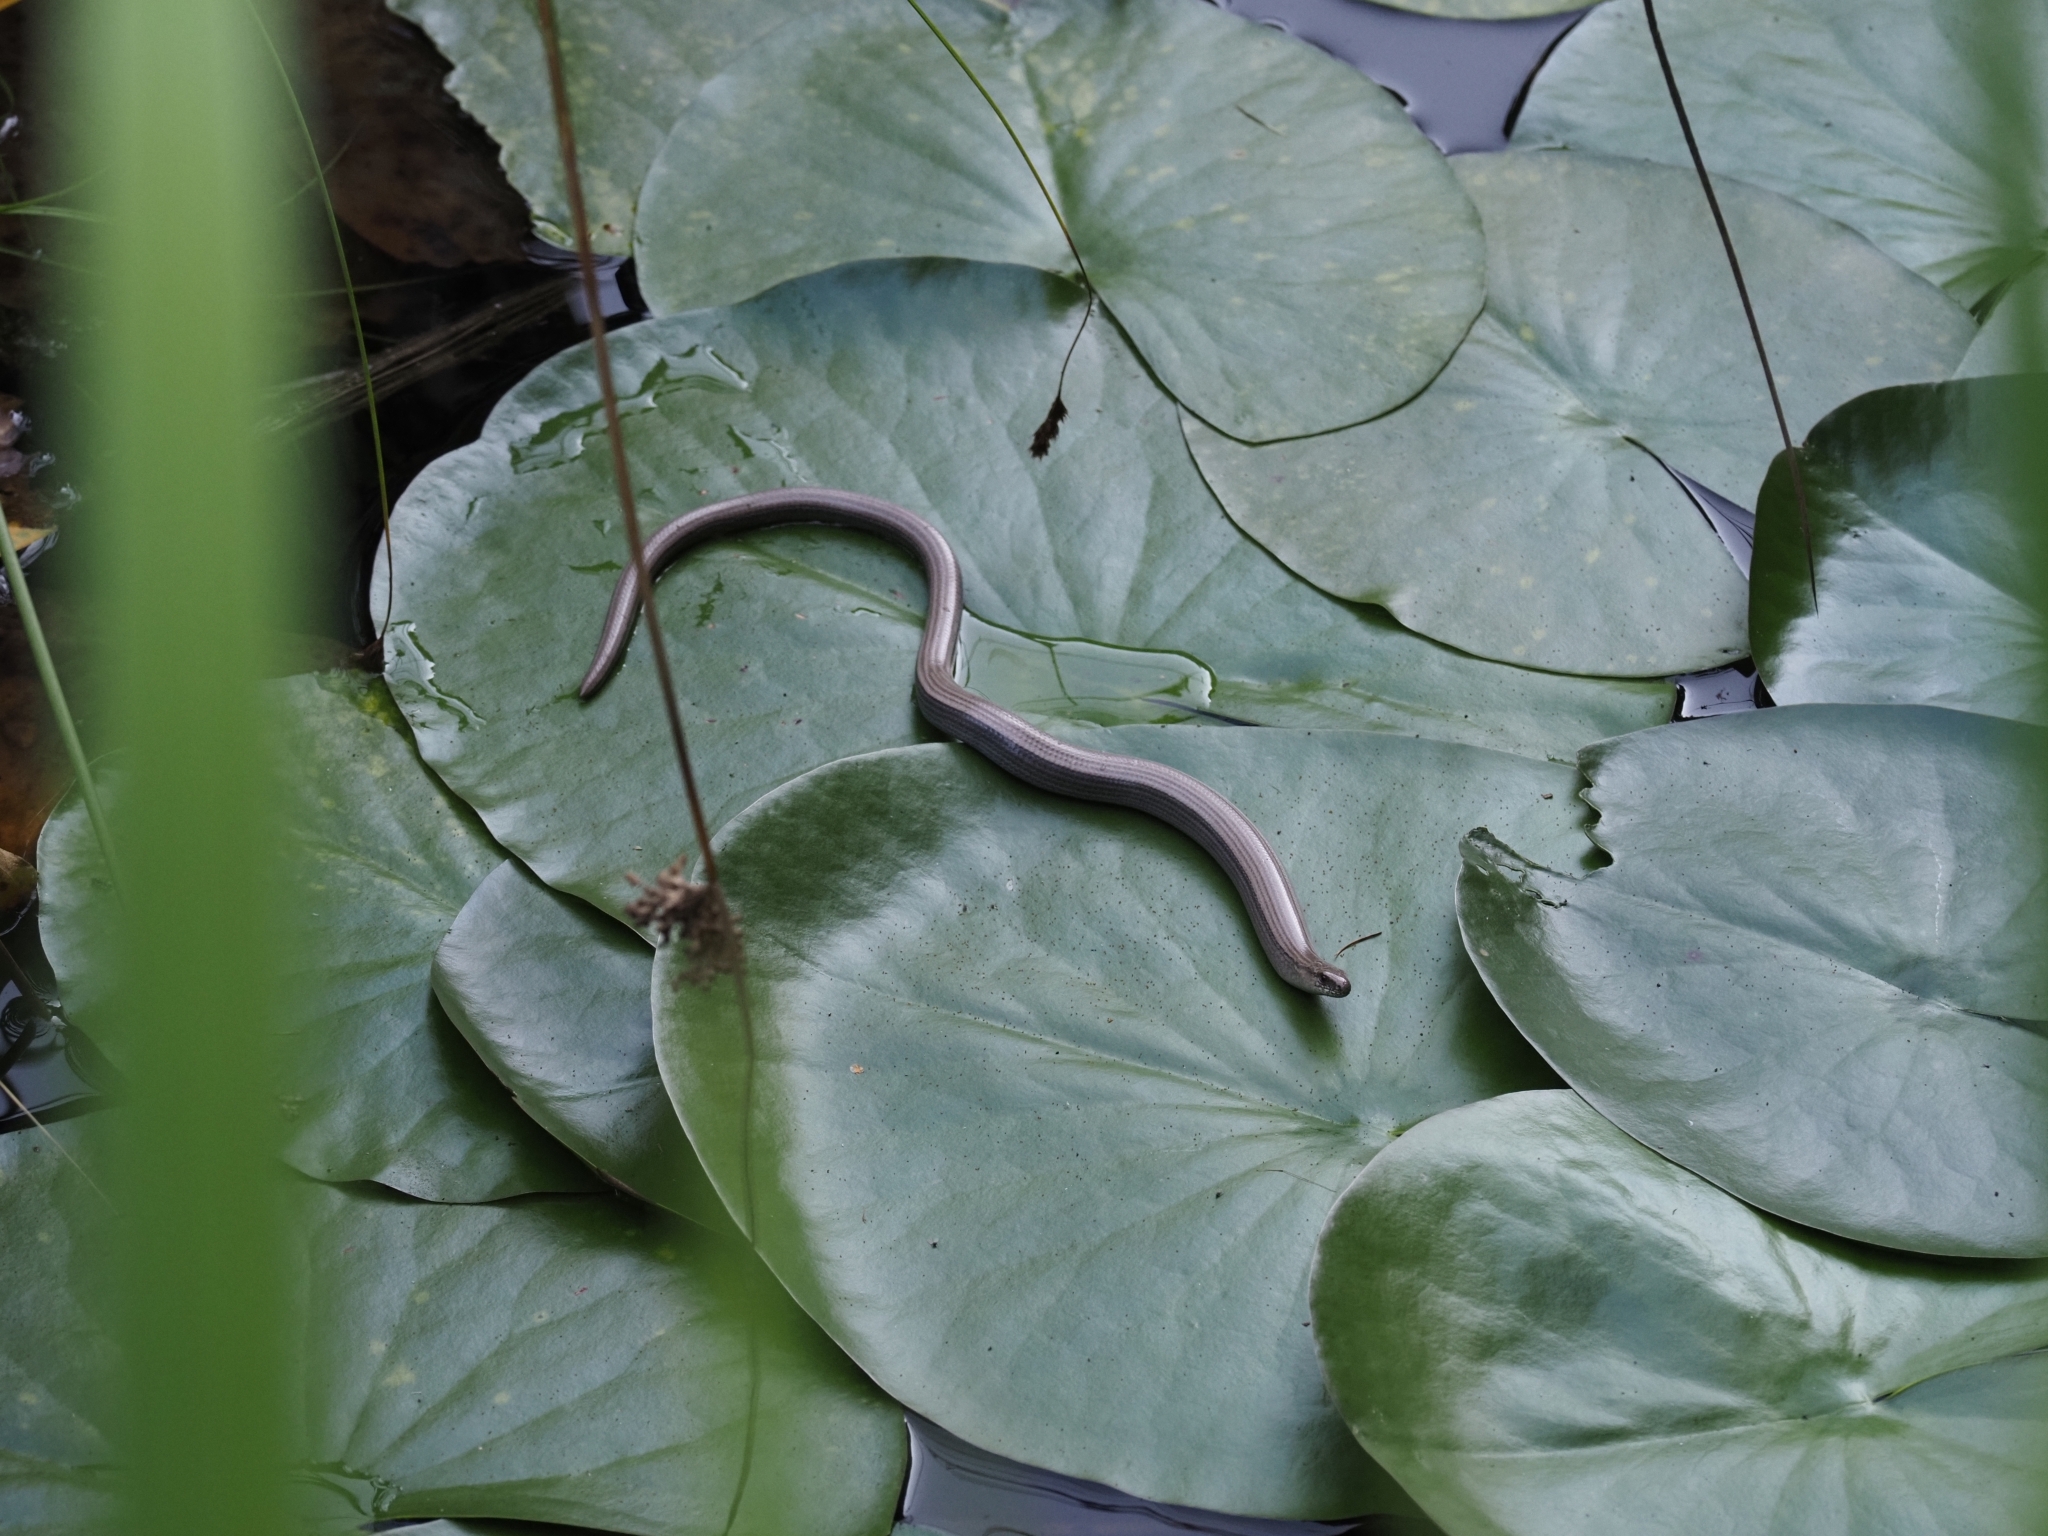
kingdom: Animalia
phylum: Chordata
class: Squamata
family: Anguidae
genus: Anguis
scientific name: Anguis fragilis
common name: Slow worm
